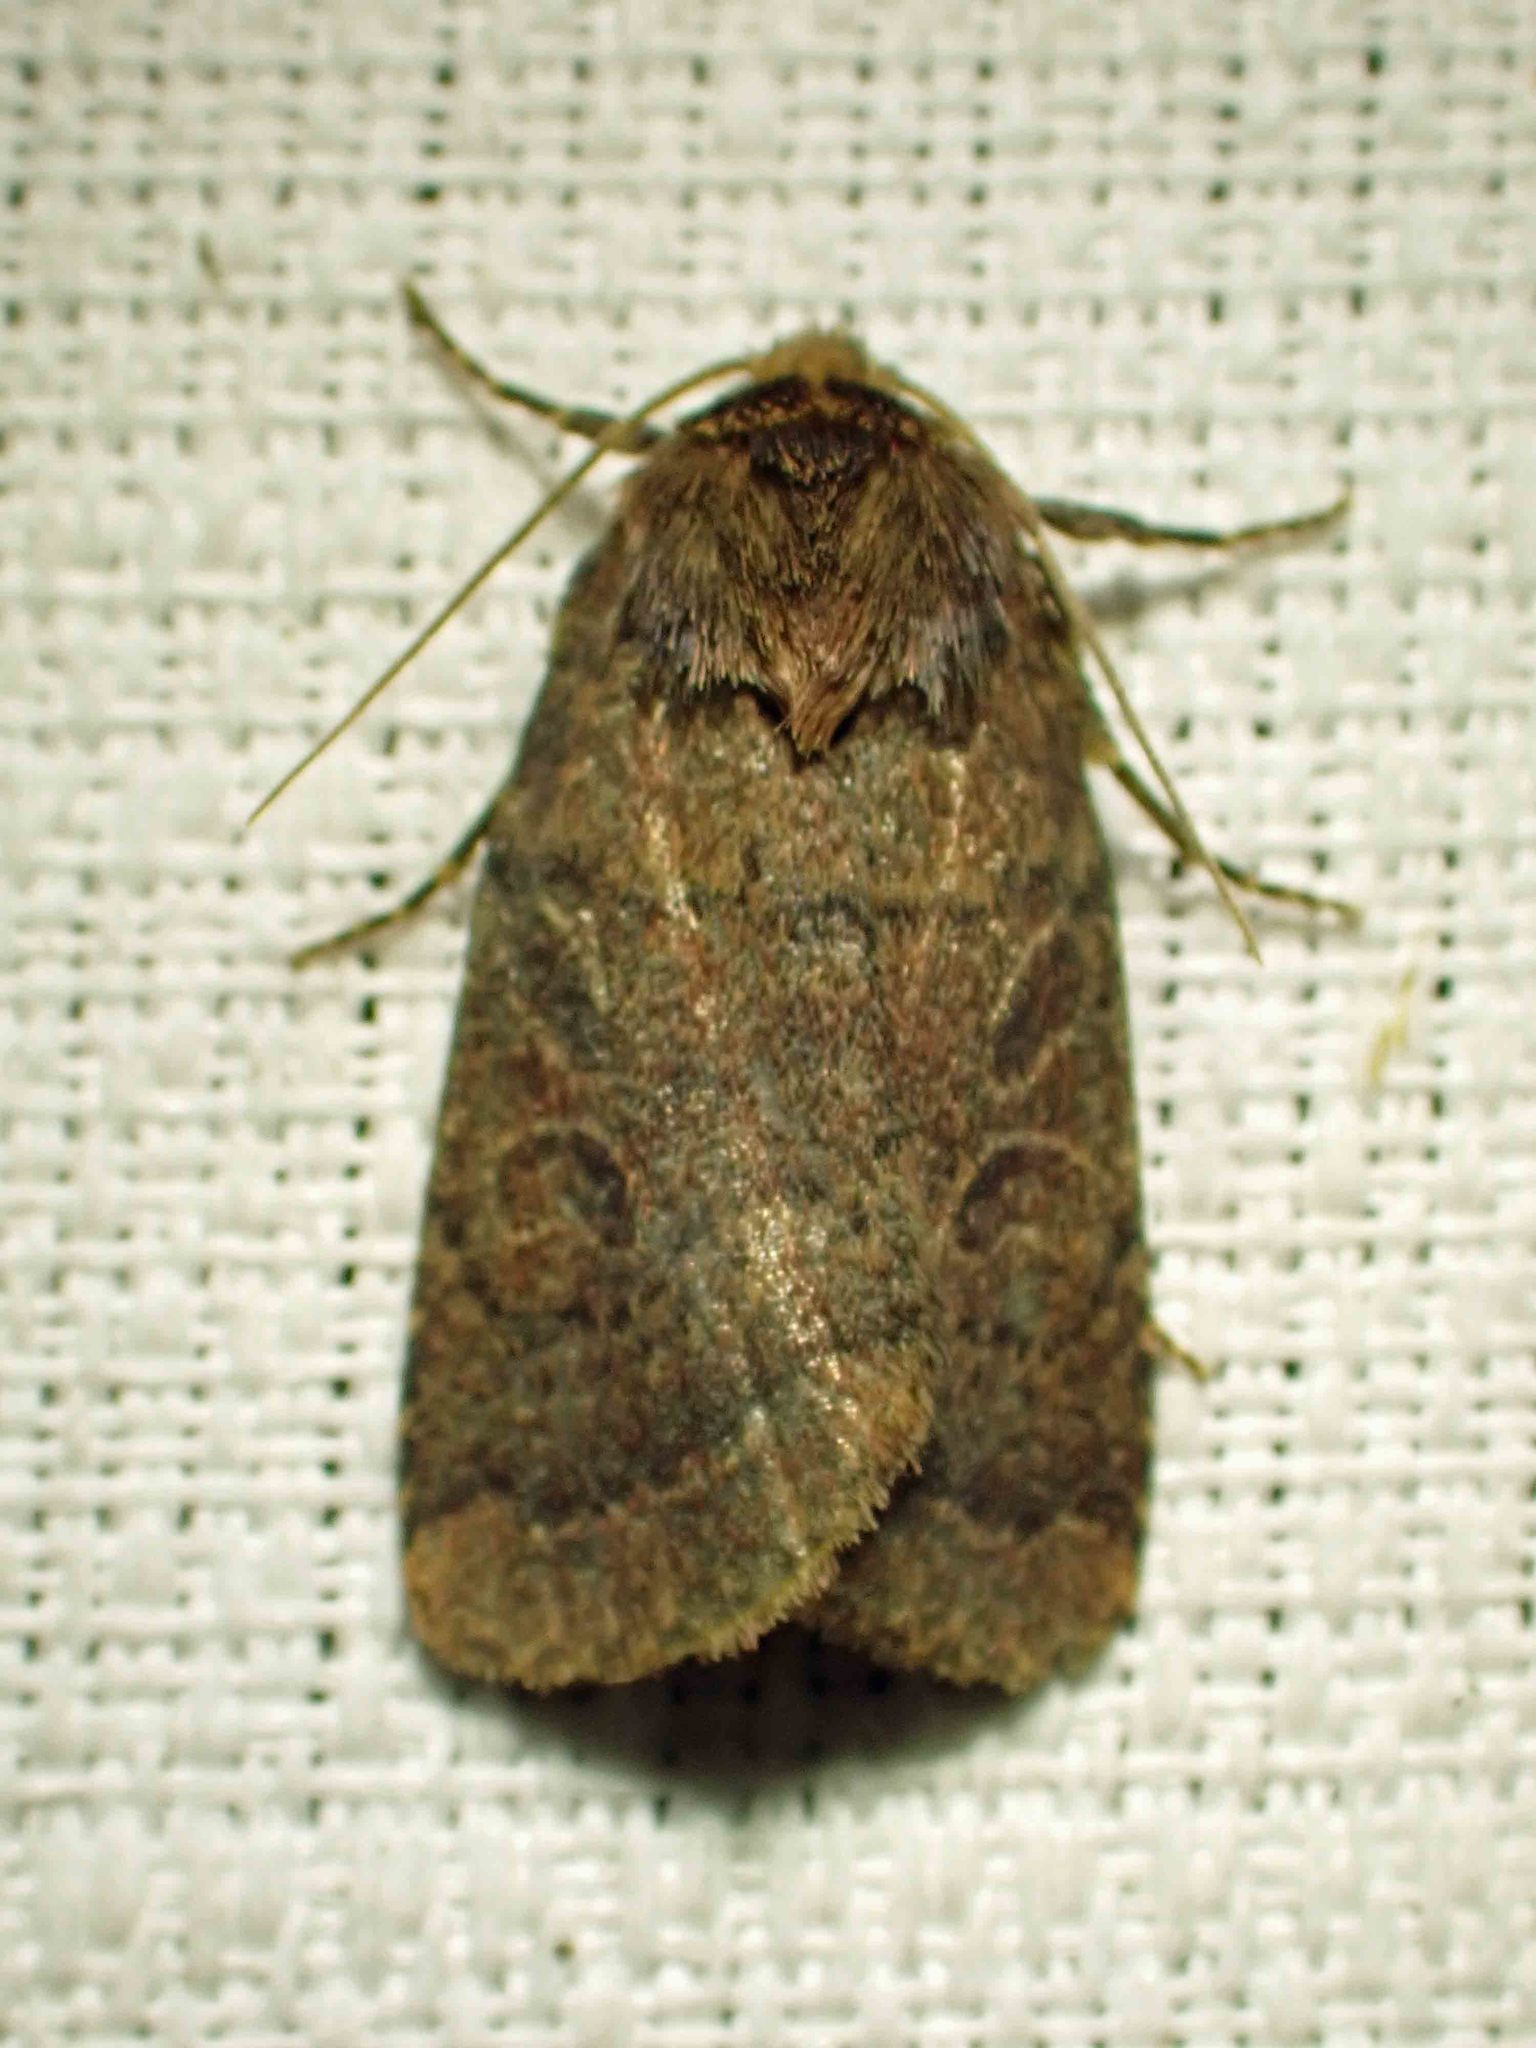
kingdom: Animalia
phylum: Arthropoda
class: Insecta
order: Lepidoptera
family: Noctuidae
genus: Orthodes
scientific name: Orthodes cynica
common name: Cynical quaker
